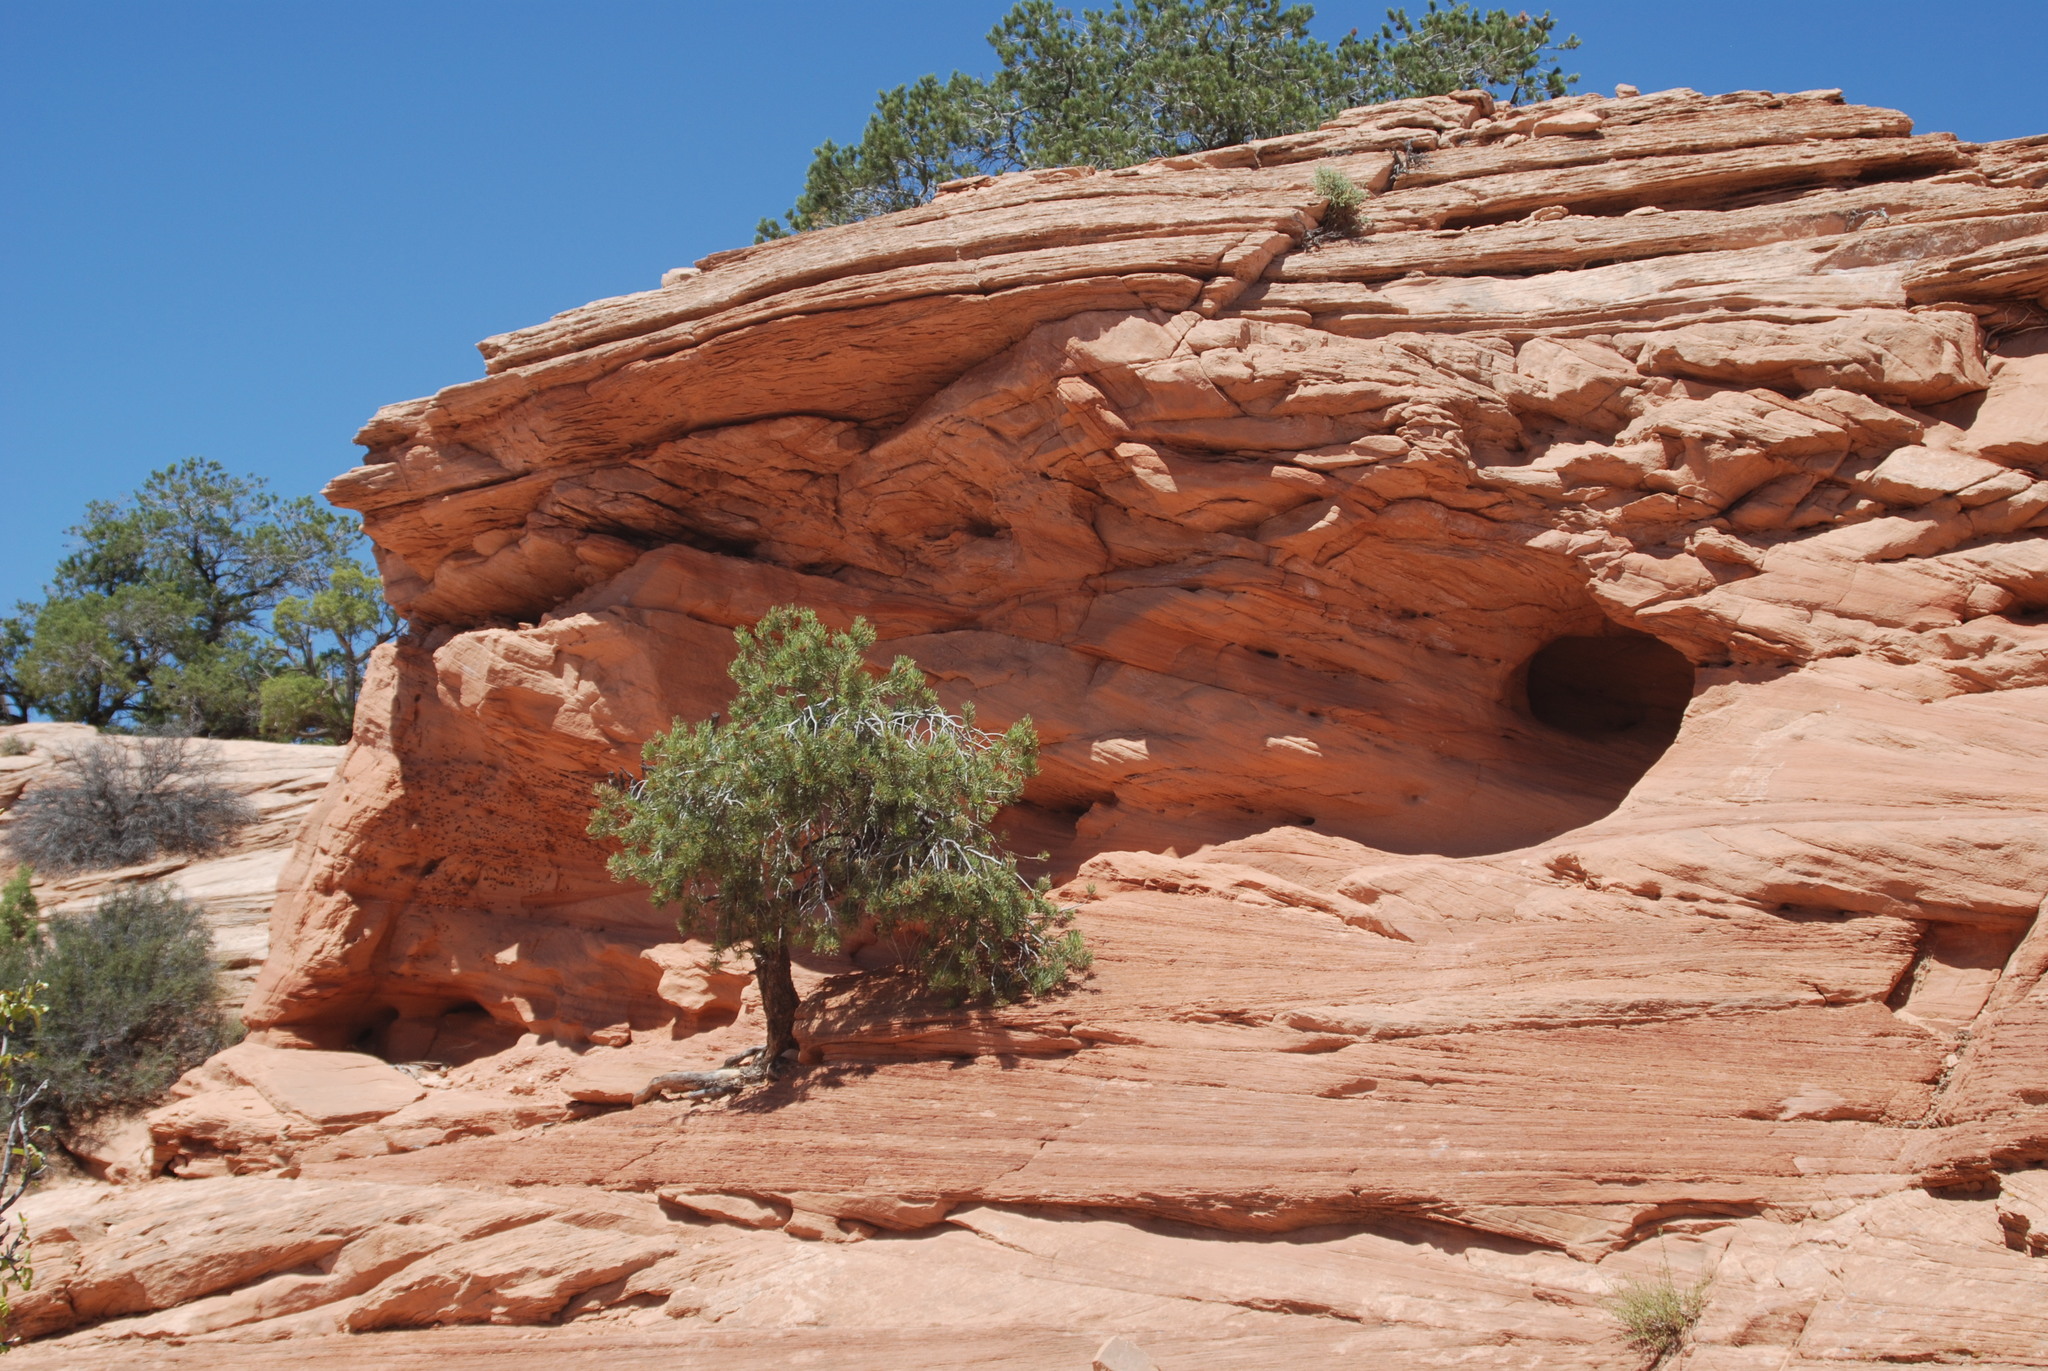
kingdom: Plantae
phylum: Tracheophyta
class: Pinopsida
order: Pinales
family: Pinaceae
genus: Pinus
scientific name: Pinus edulis
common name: Colorado pinyon
